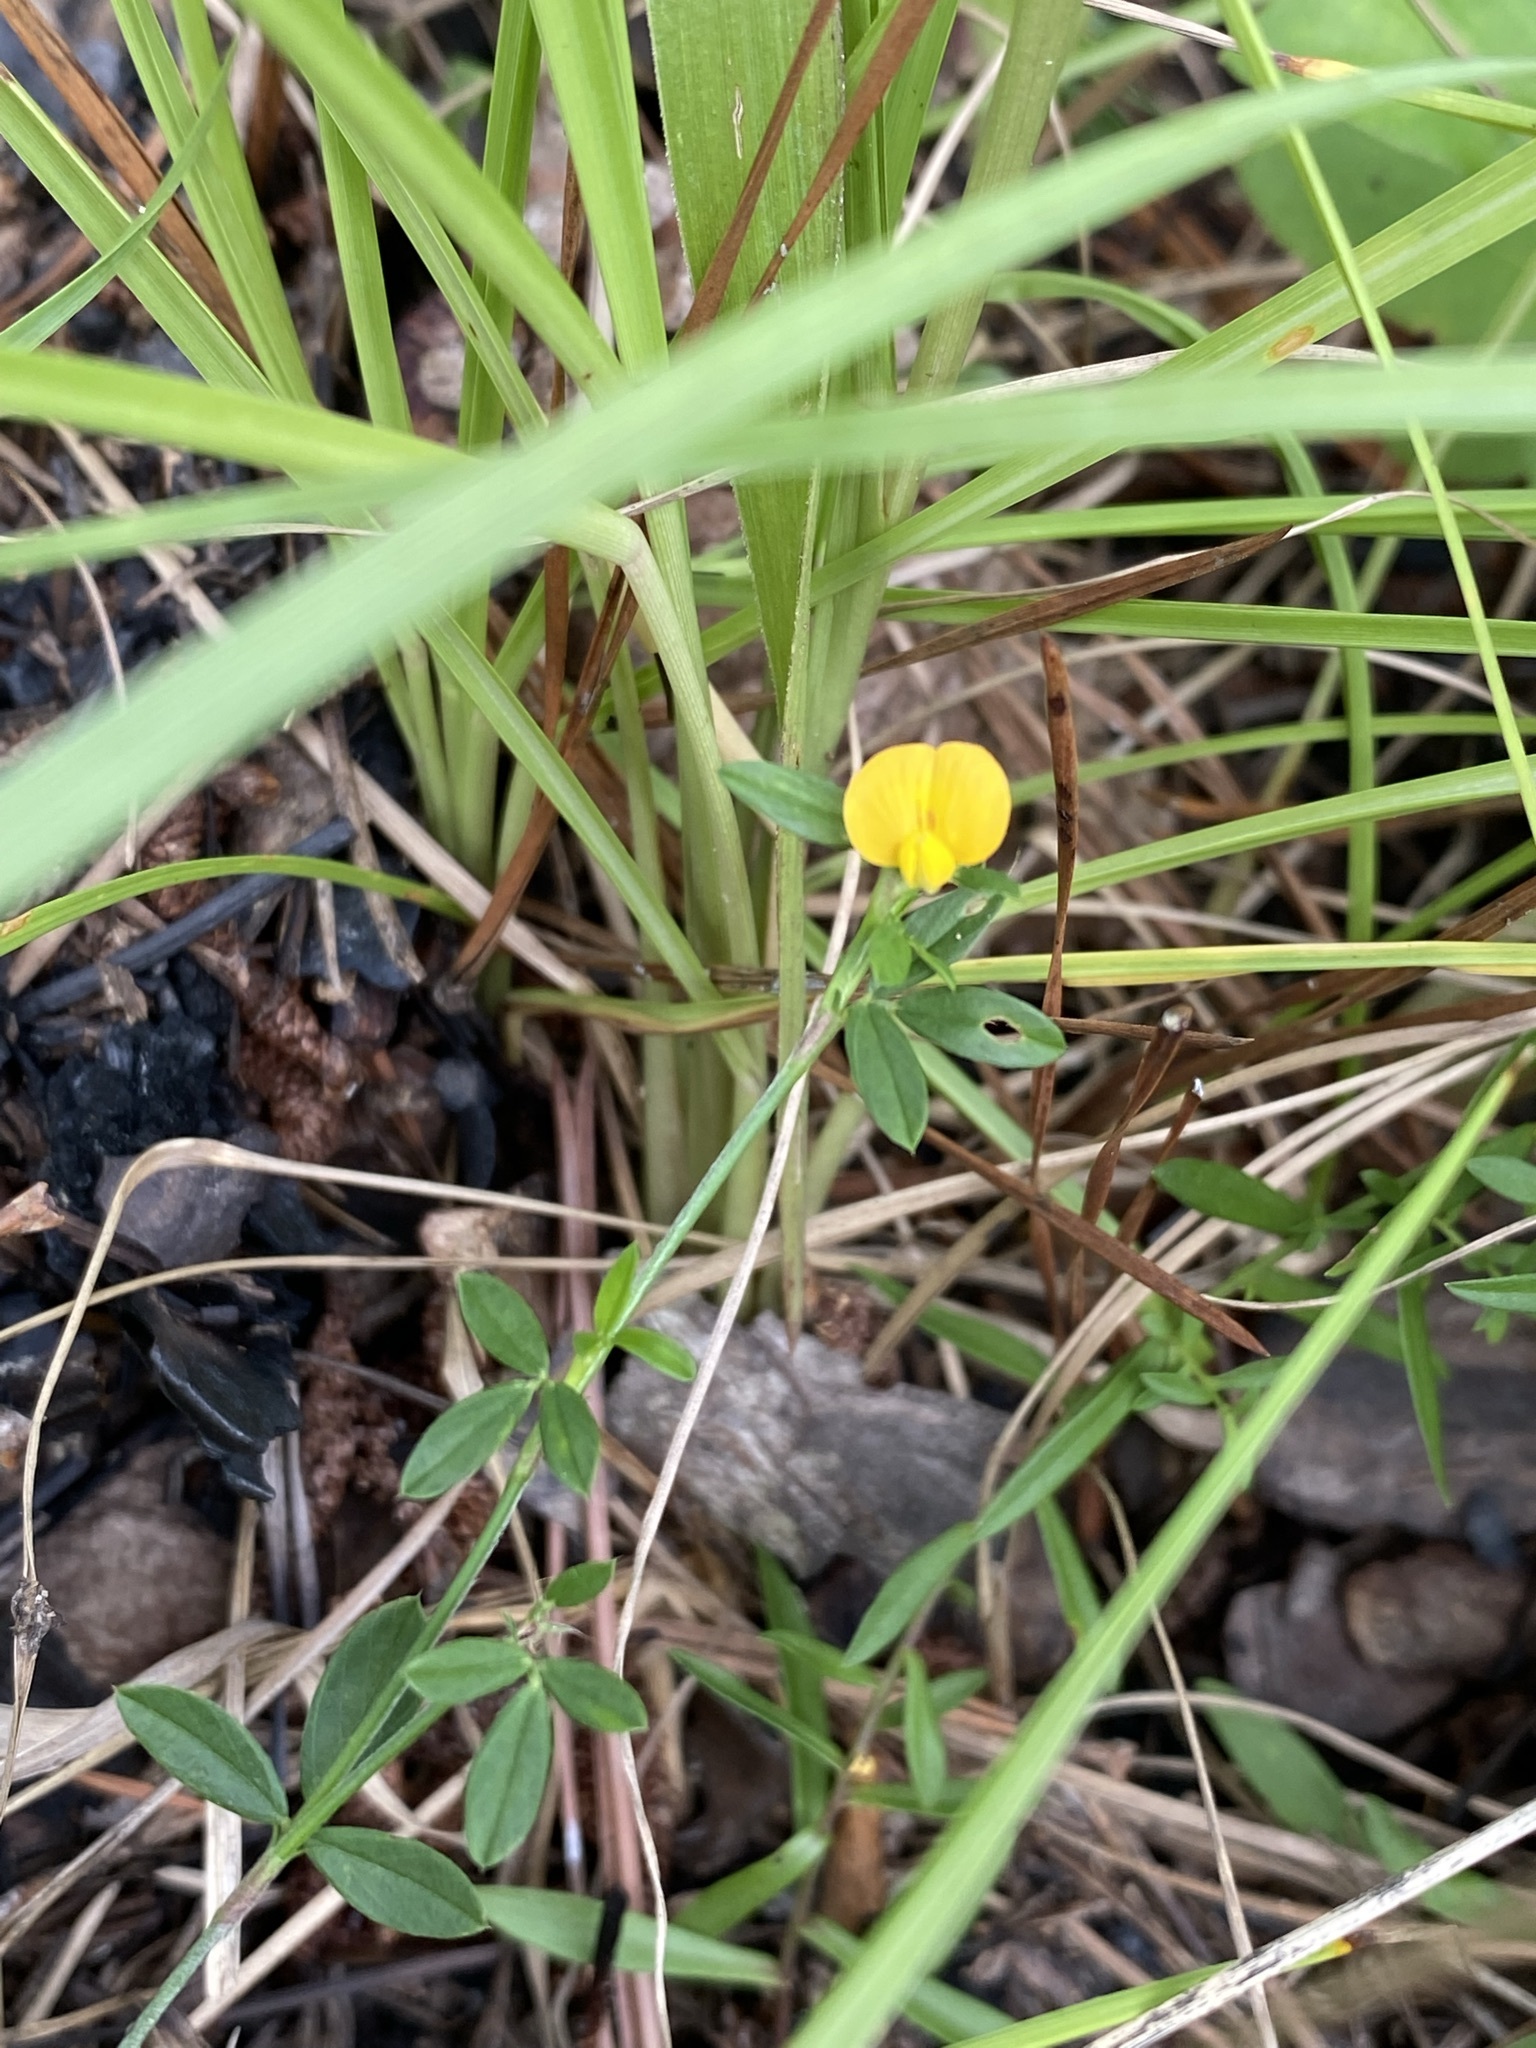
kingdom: Plantae
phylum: Tracheophyta
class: Magnoliopsida
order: Fabales
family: Fabaceae
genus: Stylosanthes
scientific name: Stylosanthes biflora
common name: Two-flower pencil-flower
